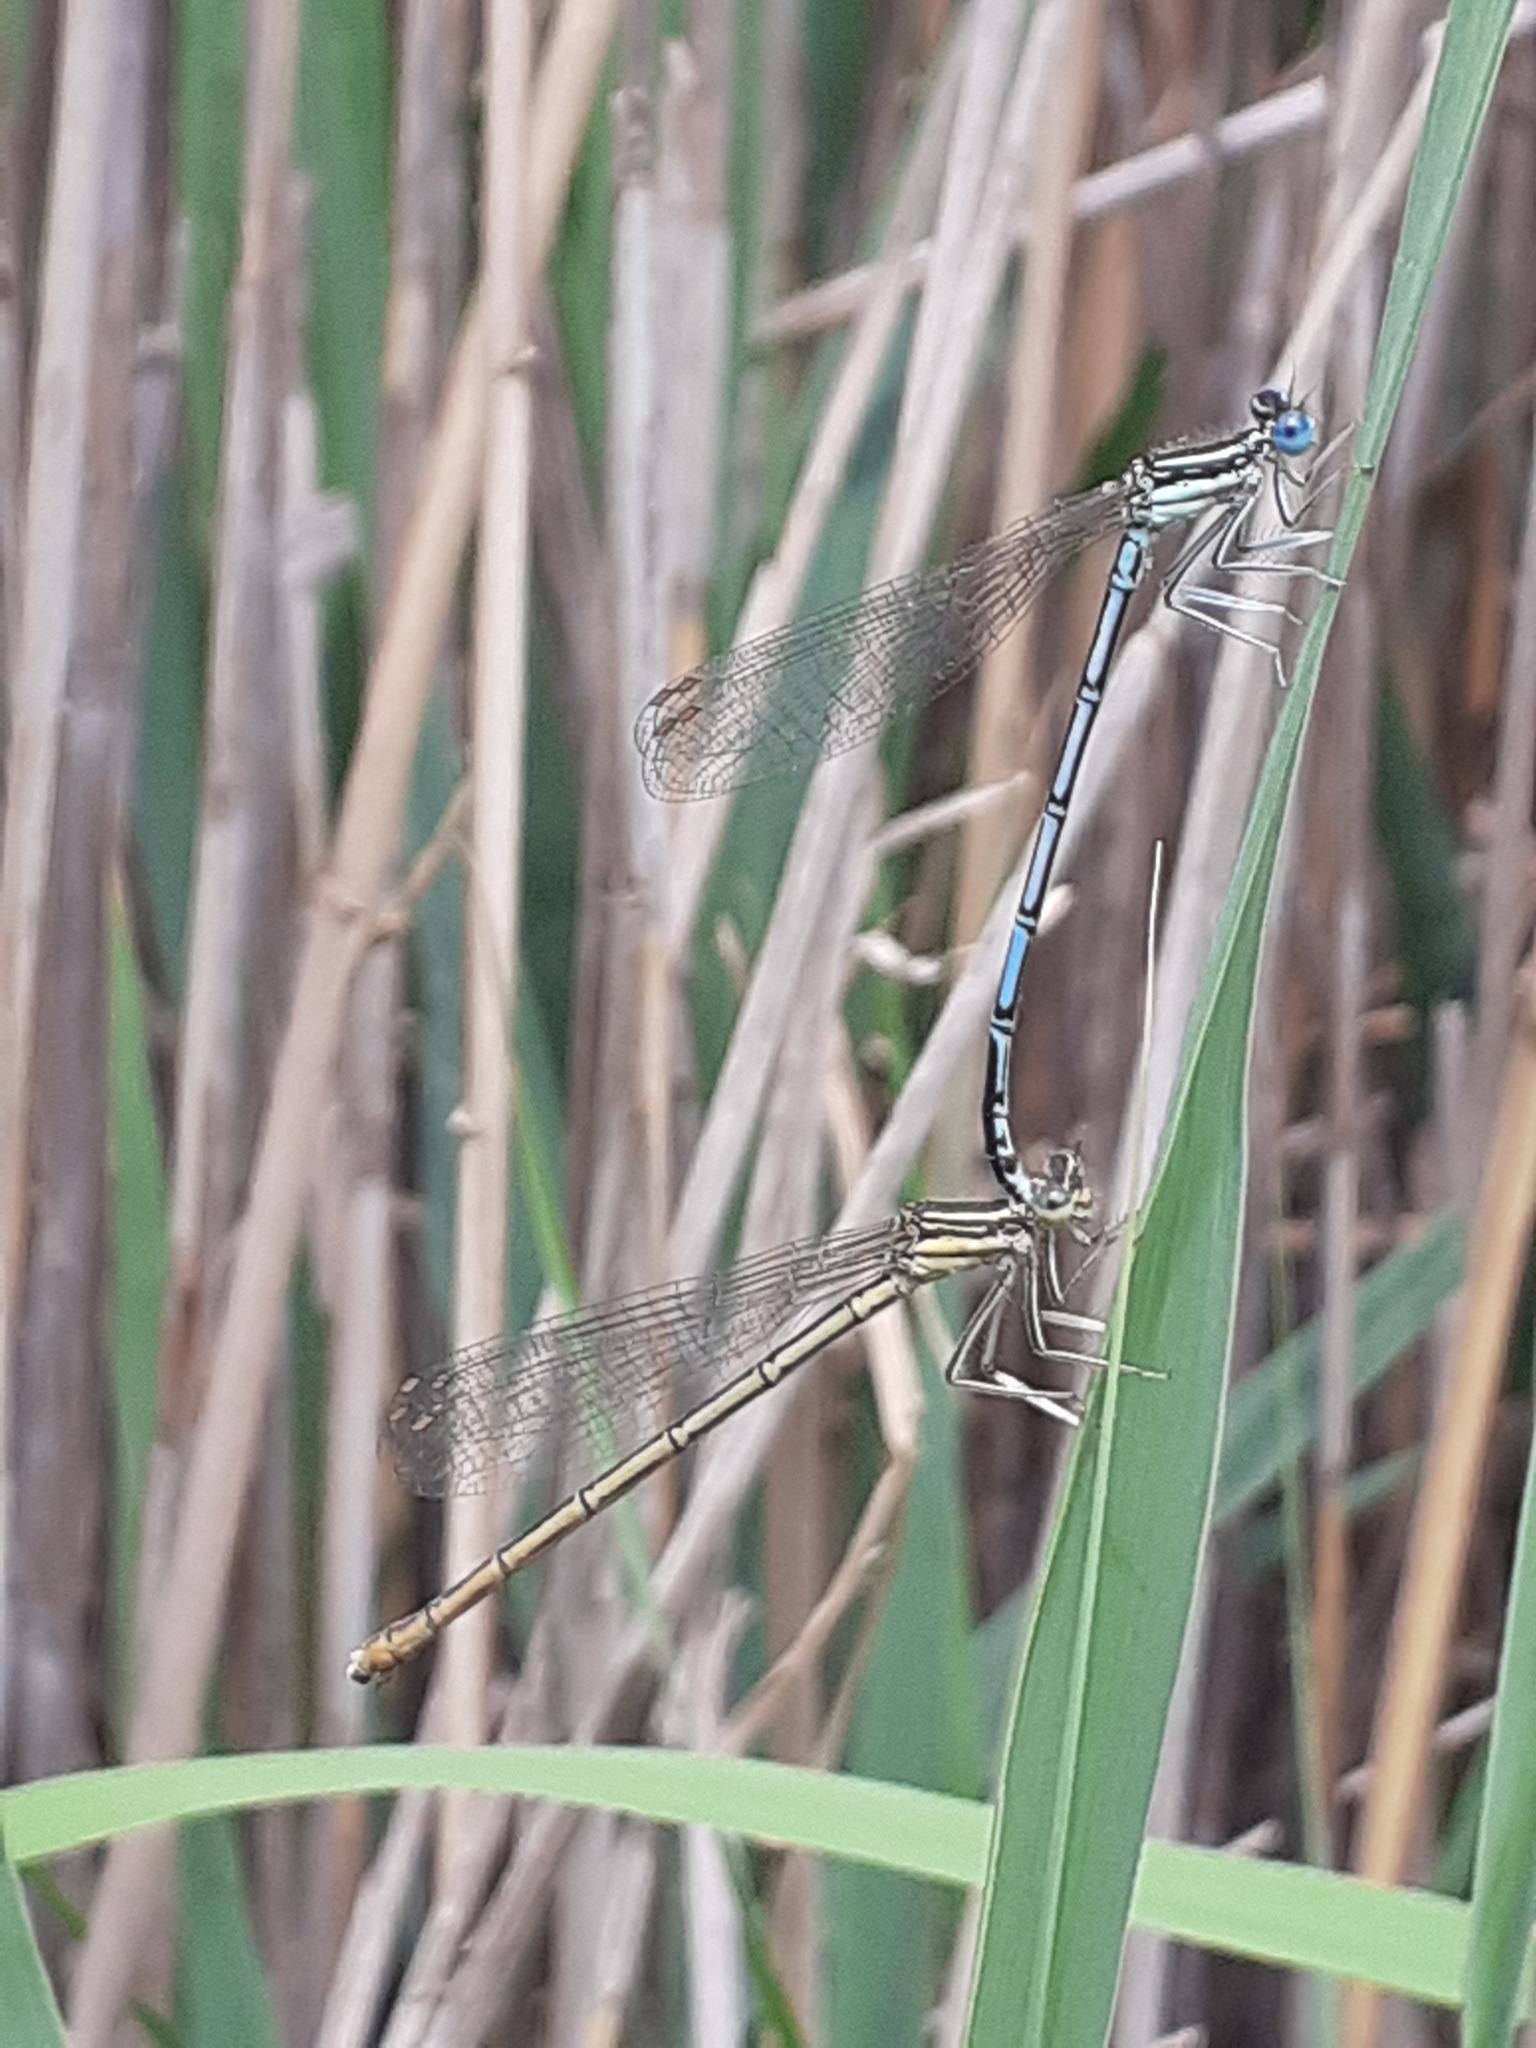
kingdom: Animalia
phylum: Arthropoda
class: Insecta
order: Odonata
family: Platycnemididae
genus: Platycnemis
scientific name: Platycnemis pennipes
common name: White-legged damselfly
